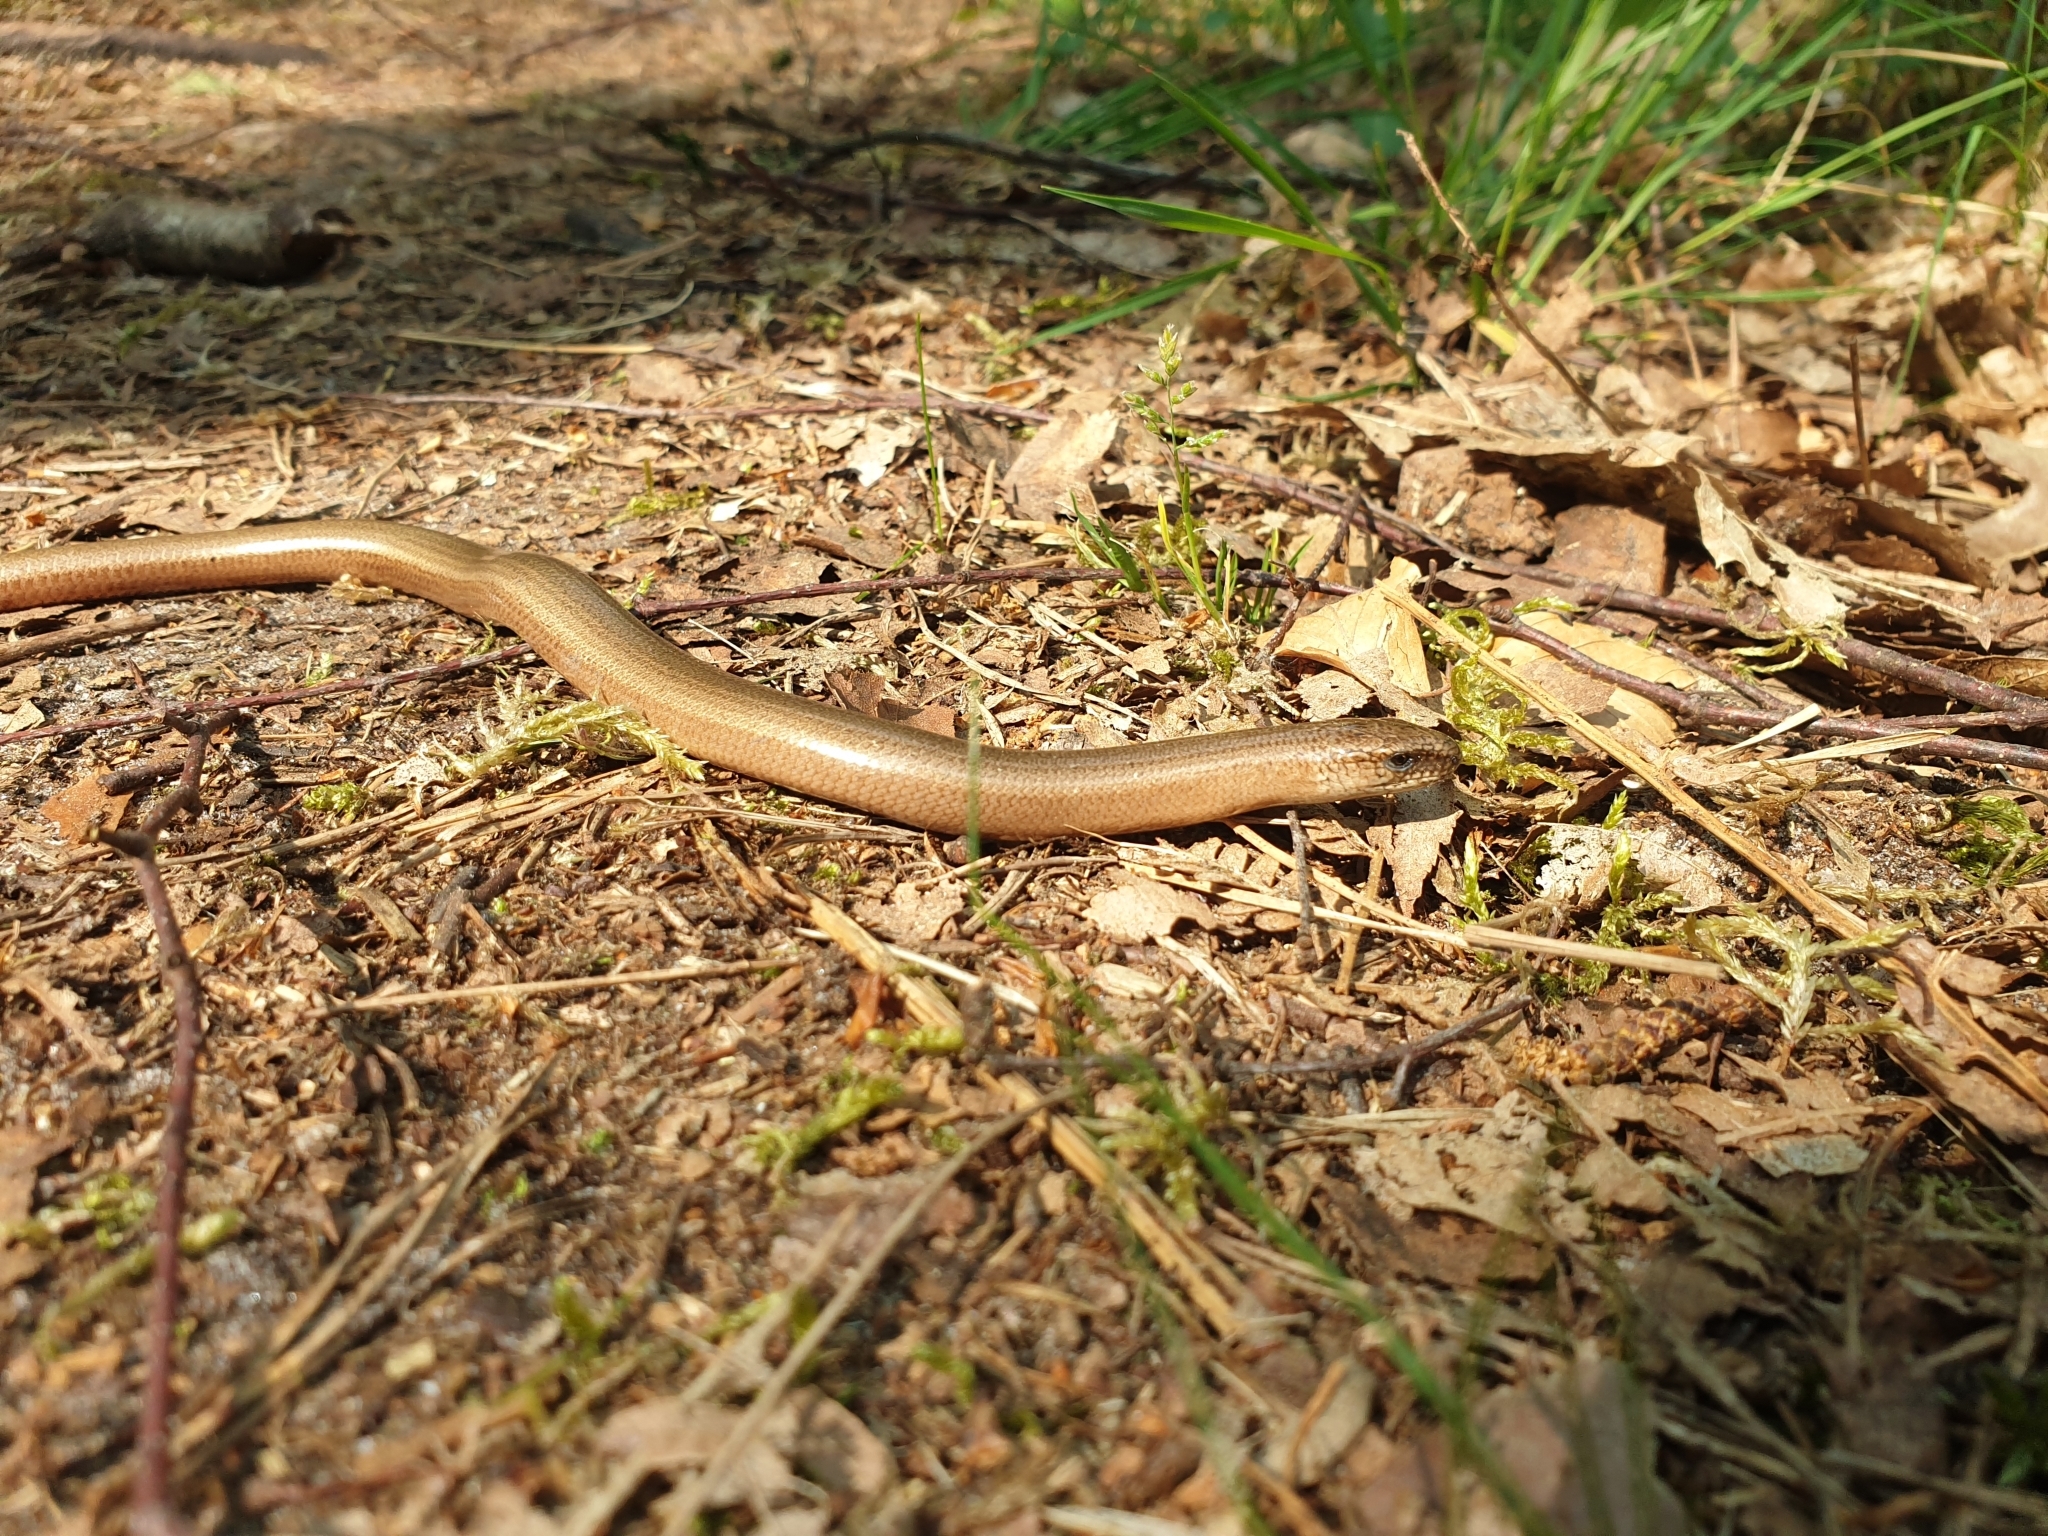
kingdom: Animalia
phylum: Chordata
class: Squamata
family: Anguidae
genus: Anguis
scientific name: Anguis fragilis
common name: Slow worm
